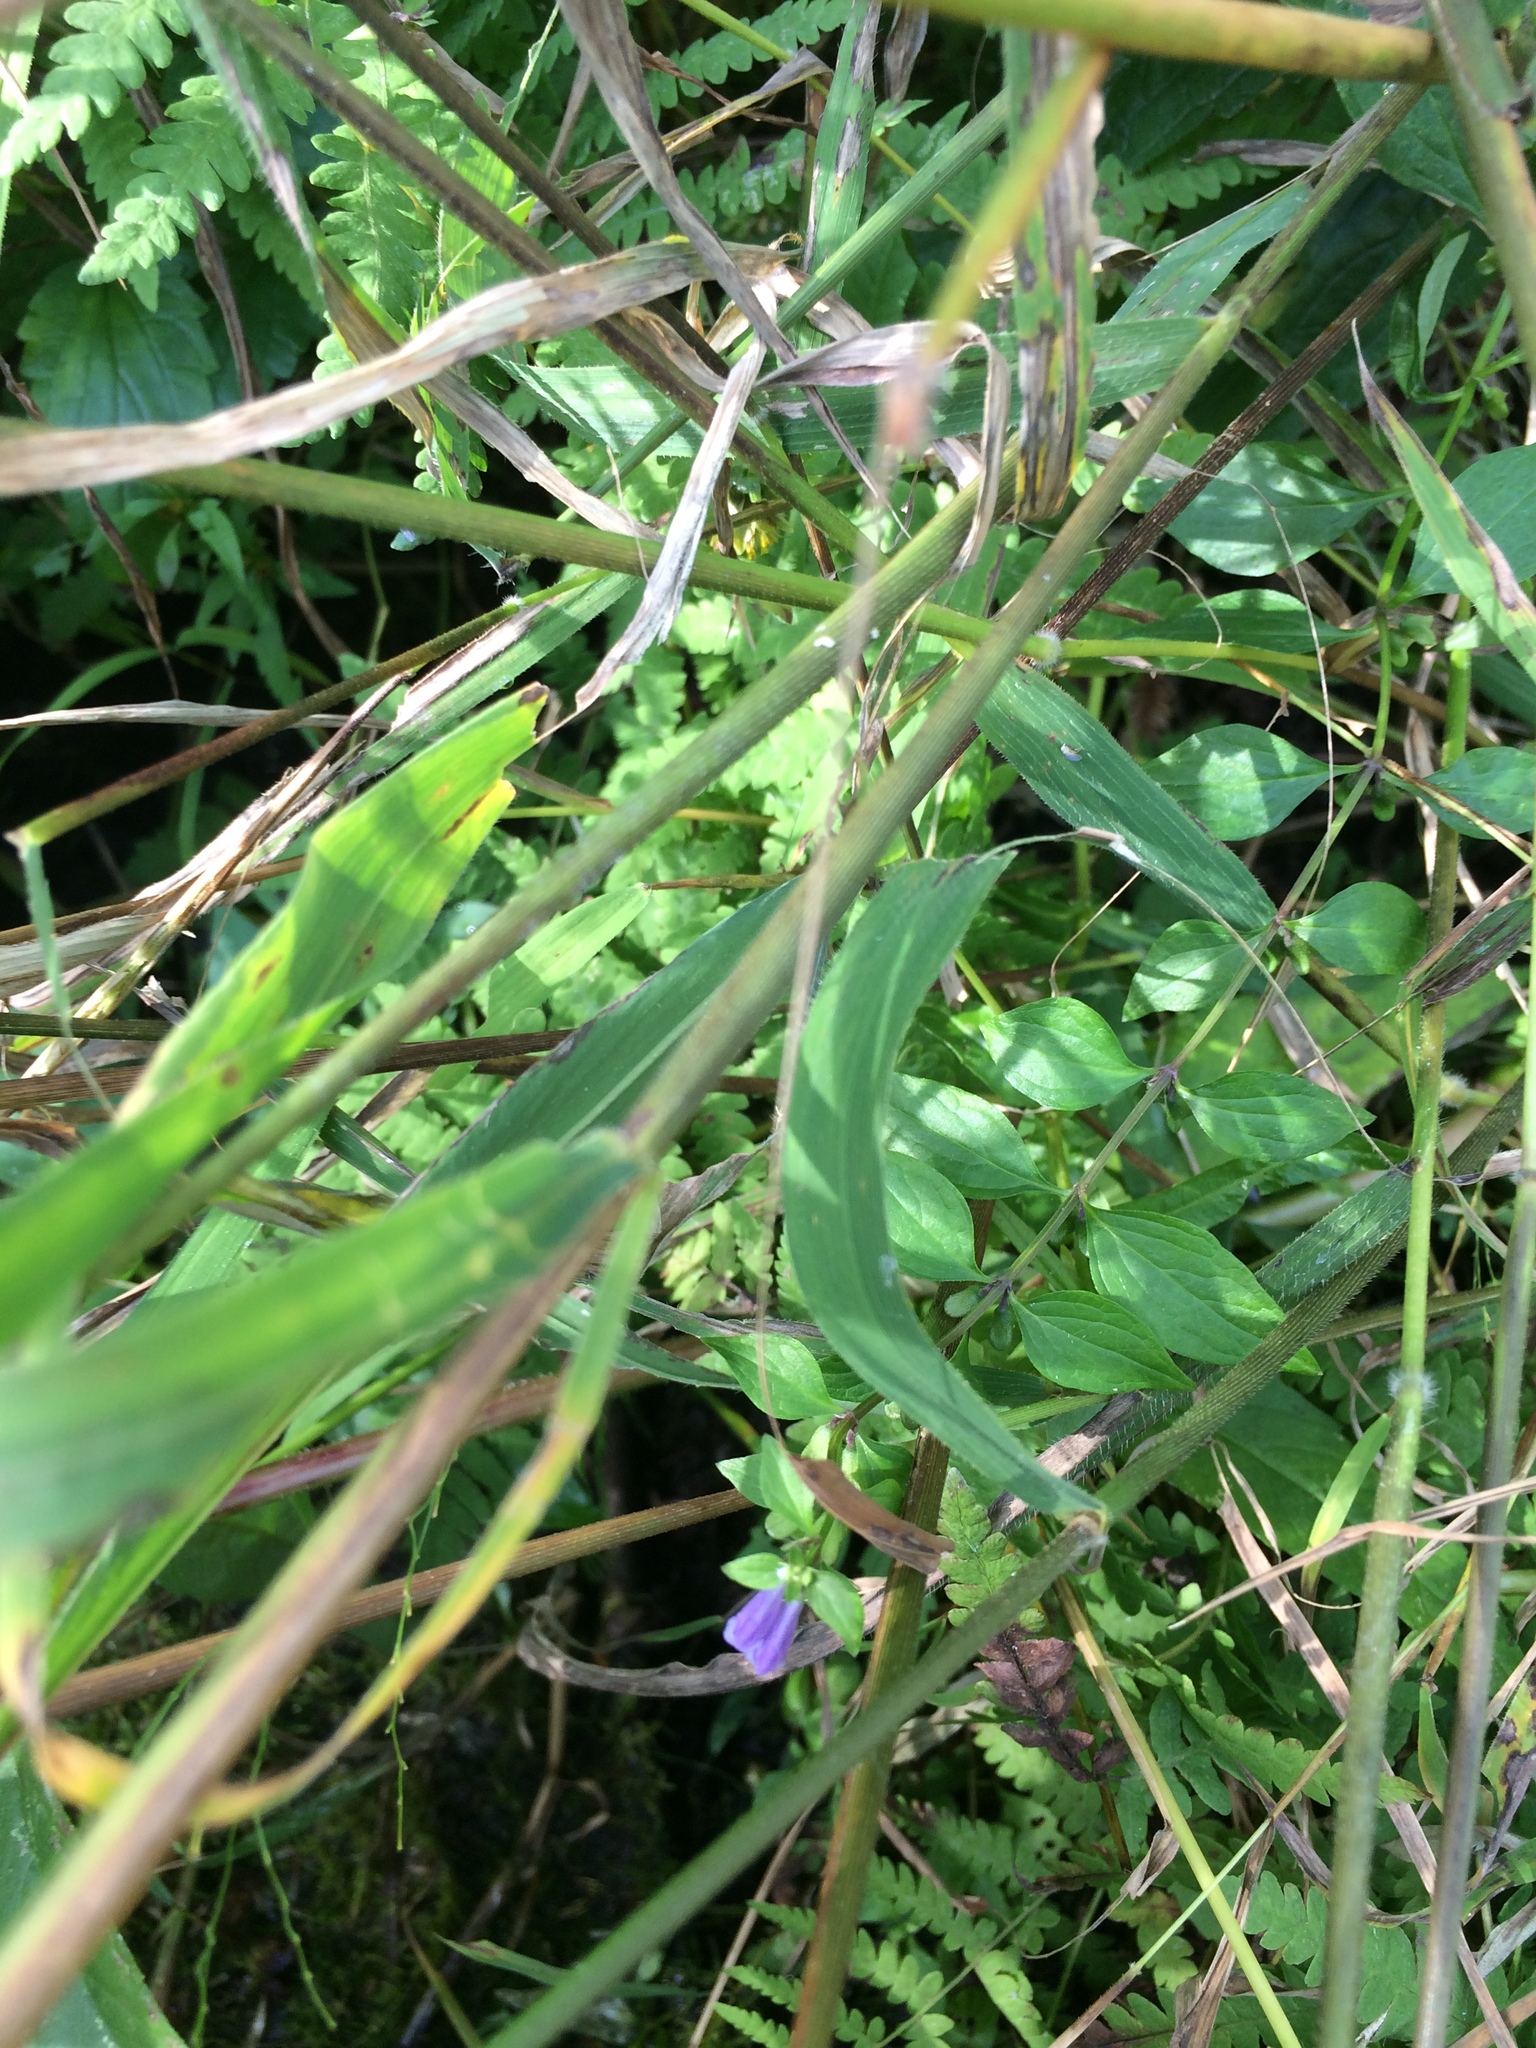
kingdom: Plantae
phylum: Tracheophyta
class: Magnoliopsida
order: Lamiales
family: Lamiaceae
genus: Scutellaria
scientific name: Scutellaria lateriflora
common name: Blue skullcap
